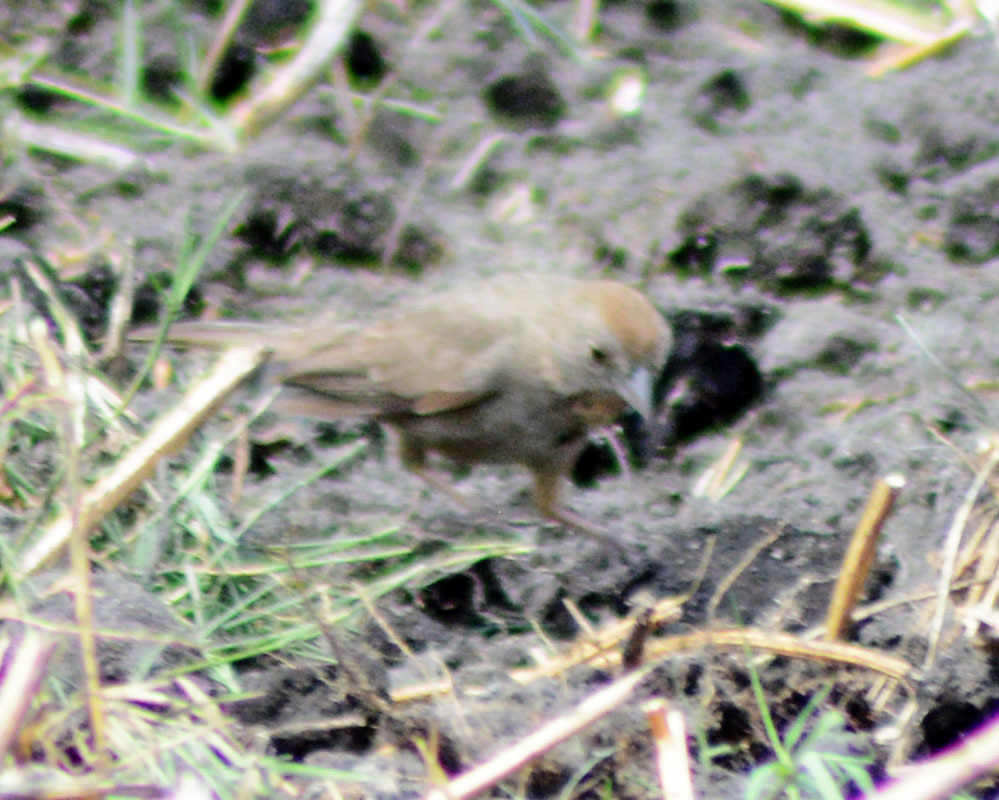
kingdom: Animalia
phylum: Chordata
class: Aves
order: Passeriformes
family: Passerellidae
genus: Melozone
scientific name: Melozone fusca
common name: Canyon towhee
